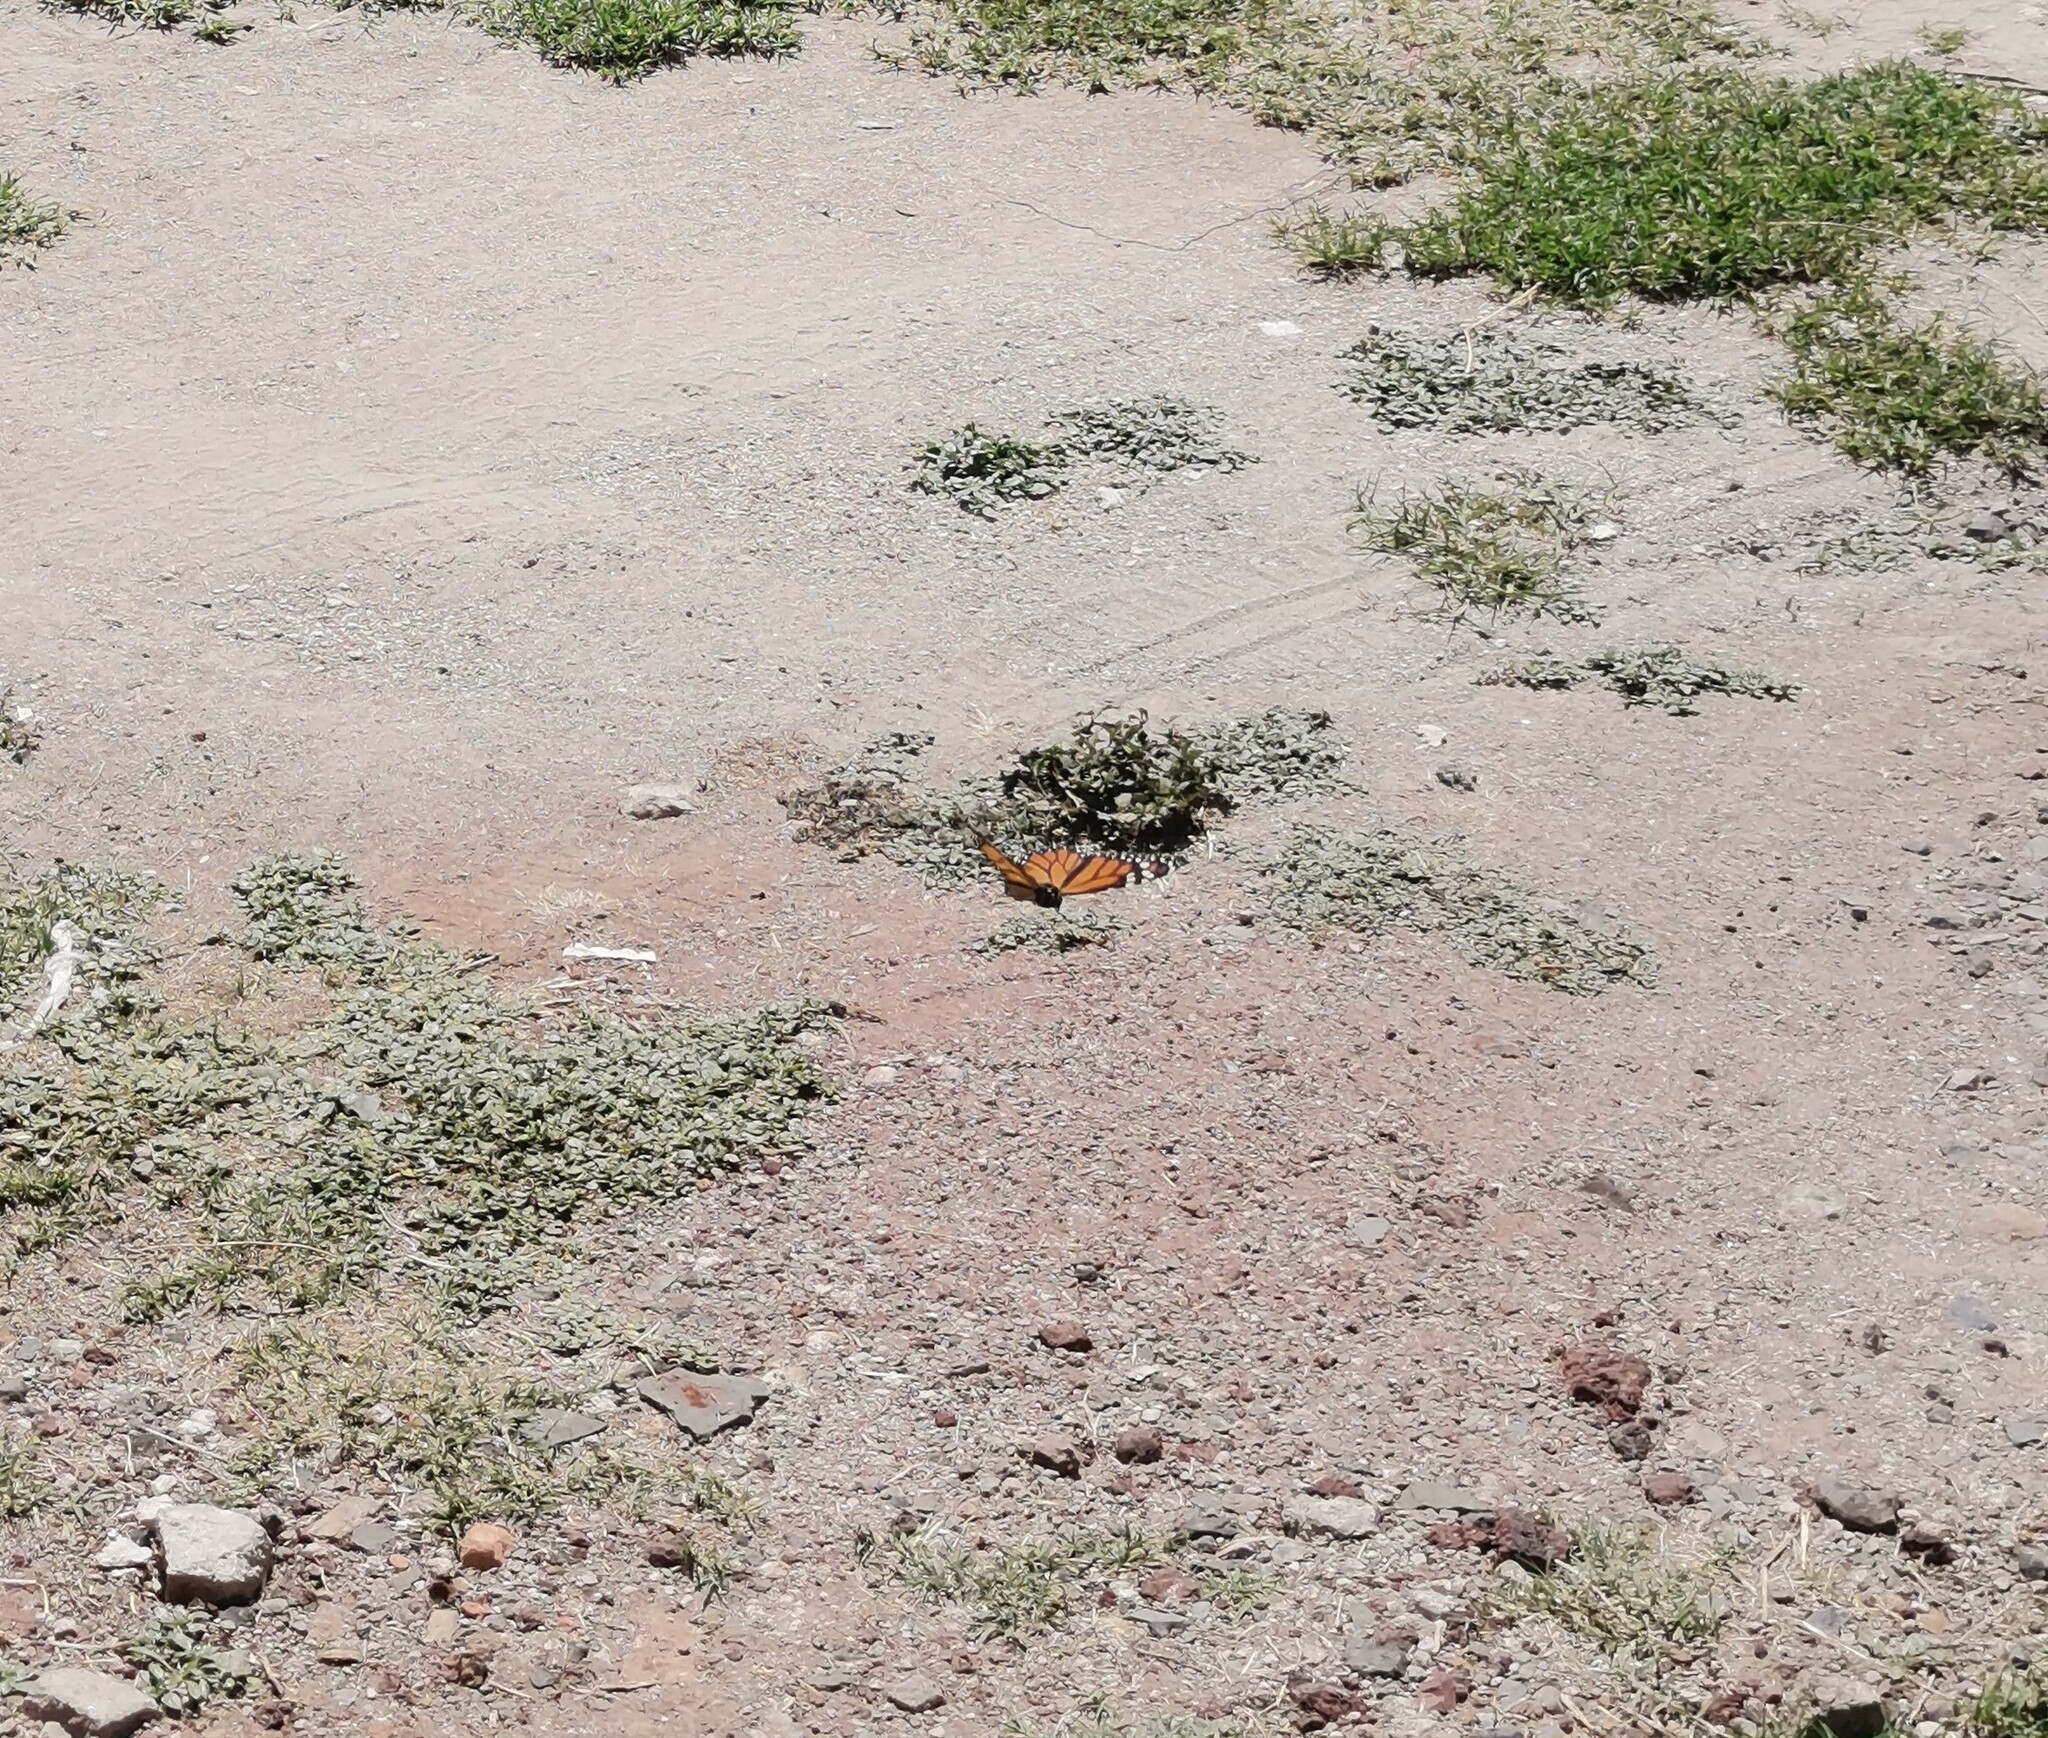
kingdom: Animalia
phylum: Arthropoda
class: Insecta
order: Lepidoptera
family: Nymphalidae
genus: Danaus
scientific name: Danaus plexippus
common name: Monarch
